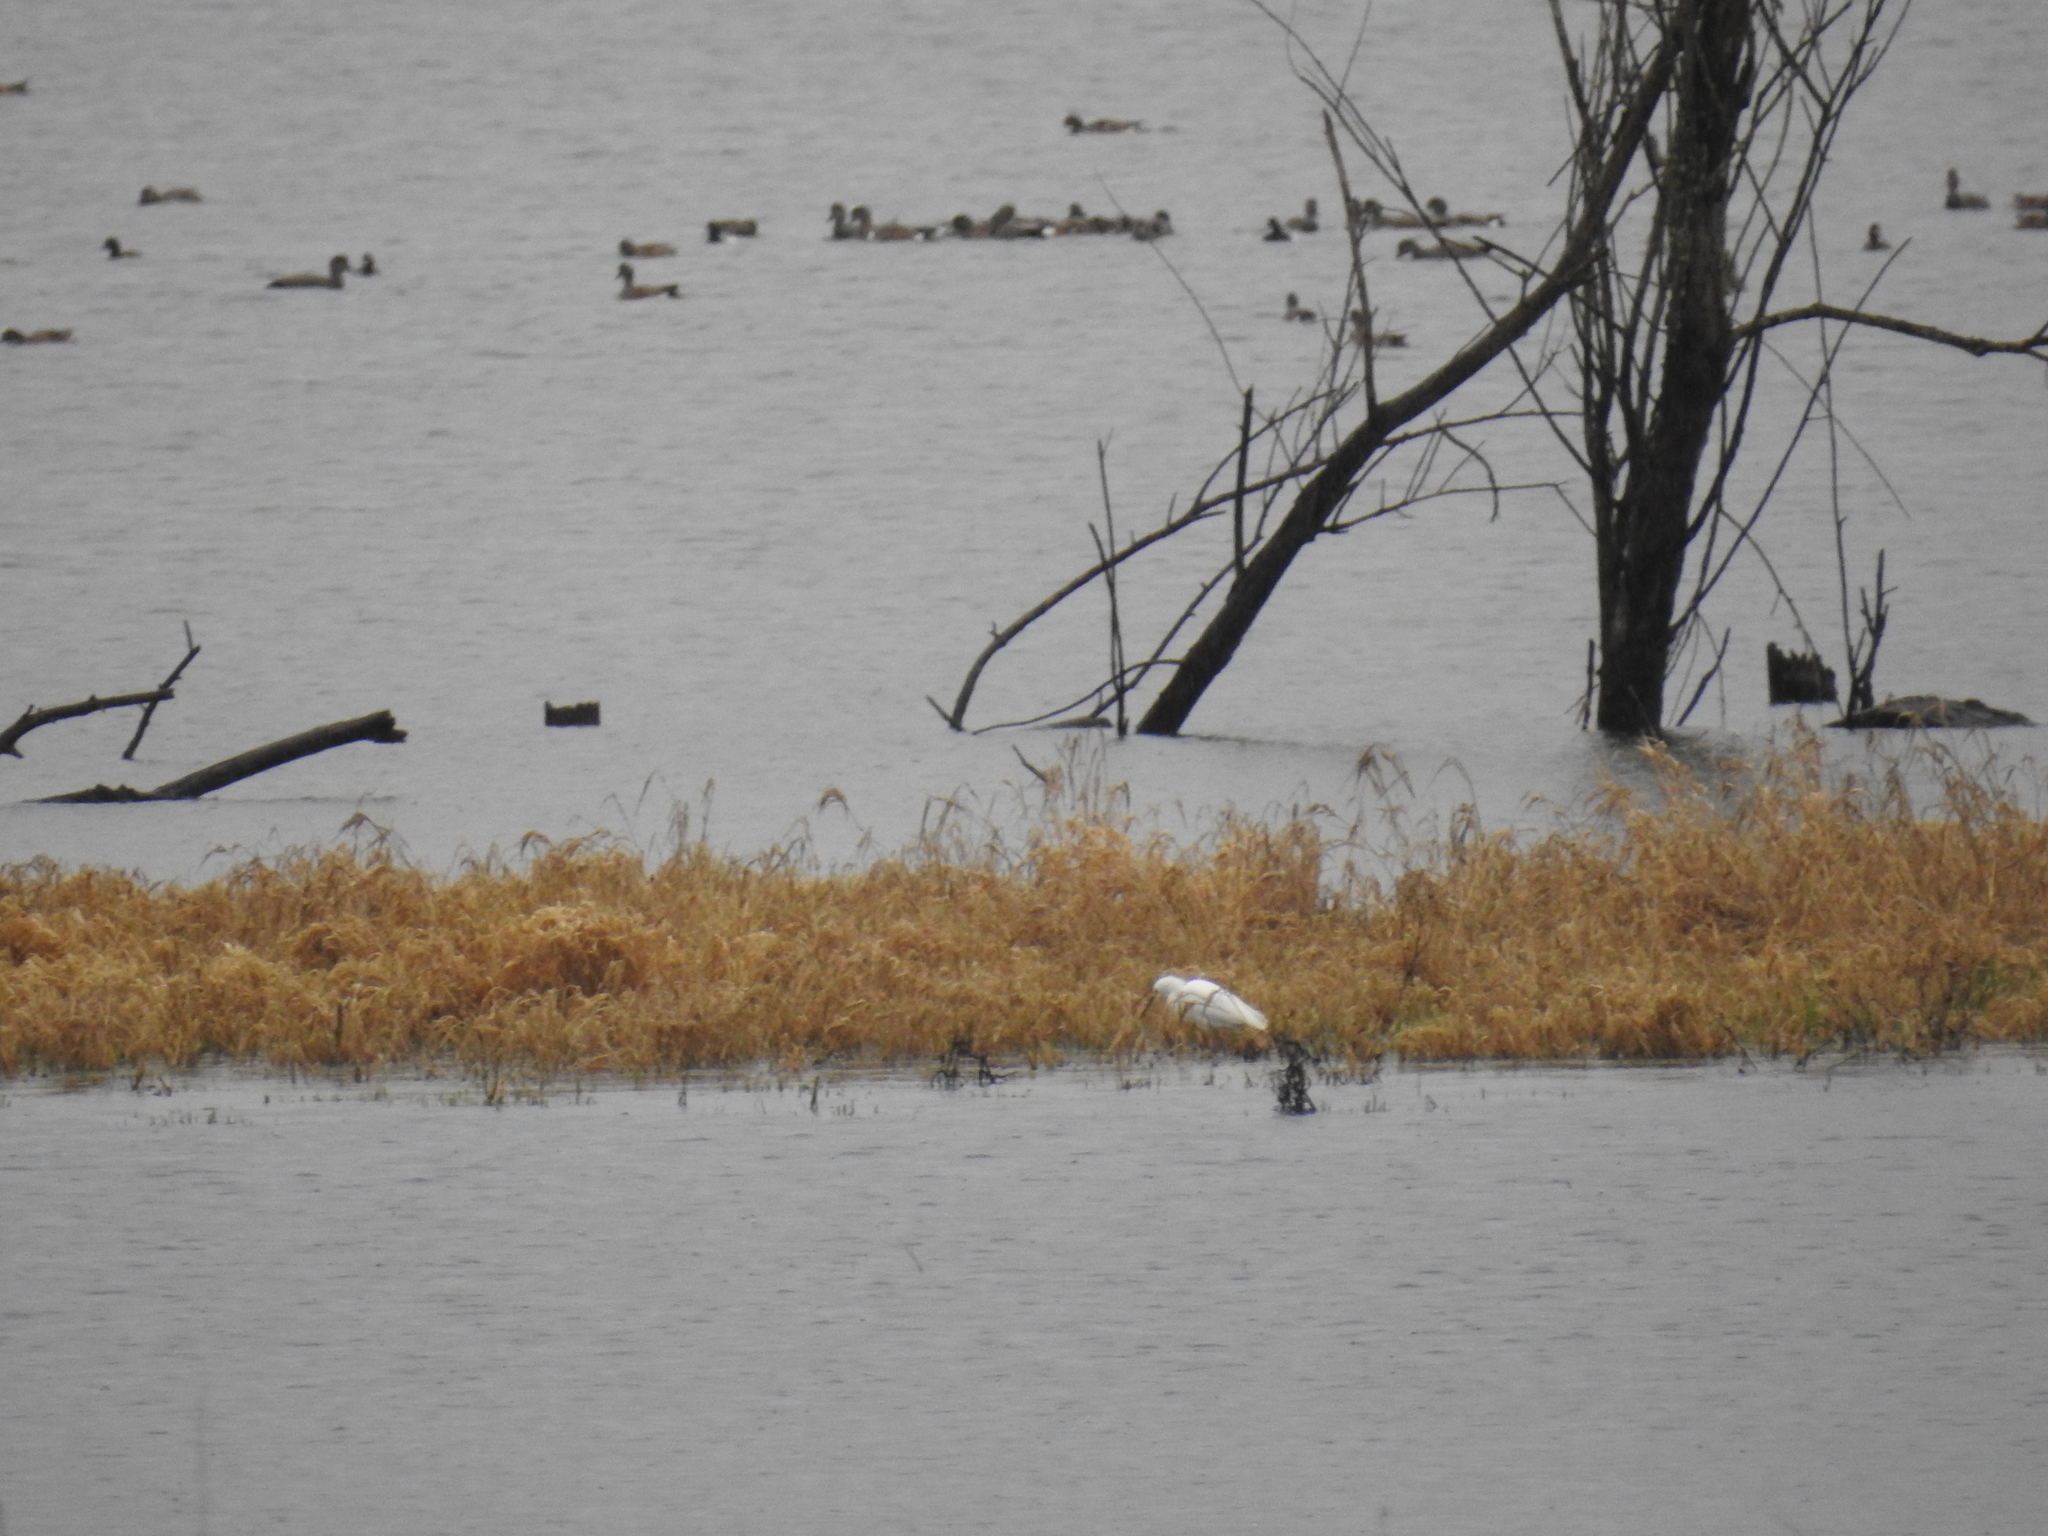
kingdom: Animalia
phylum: Chordata
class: Aves
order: Anseriformes
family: Anatidae
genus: Mareca
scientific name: Mareca americana
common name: American wigeon
